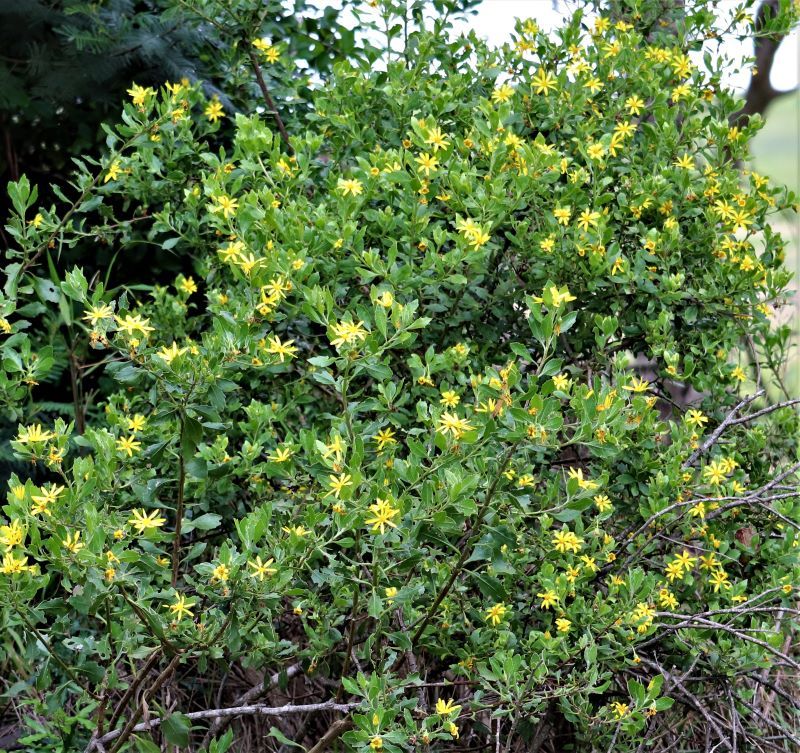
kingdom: Plantae
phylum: Tracheophyta
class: Magnoliopsida
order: Asterales
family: Asteraceae
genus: Osteospermum
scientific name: Osteospermum moniliferum
